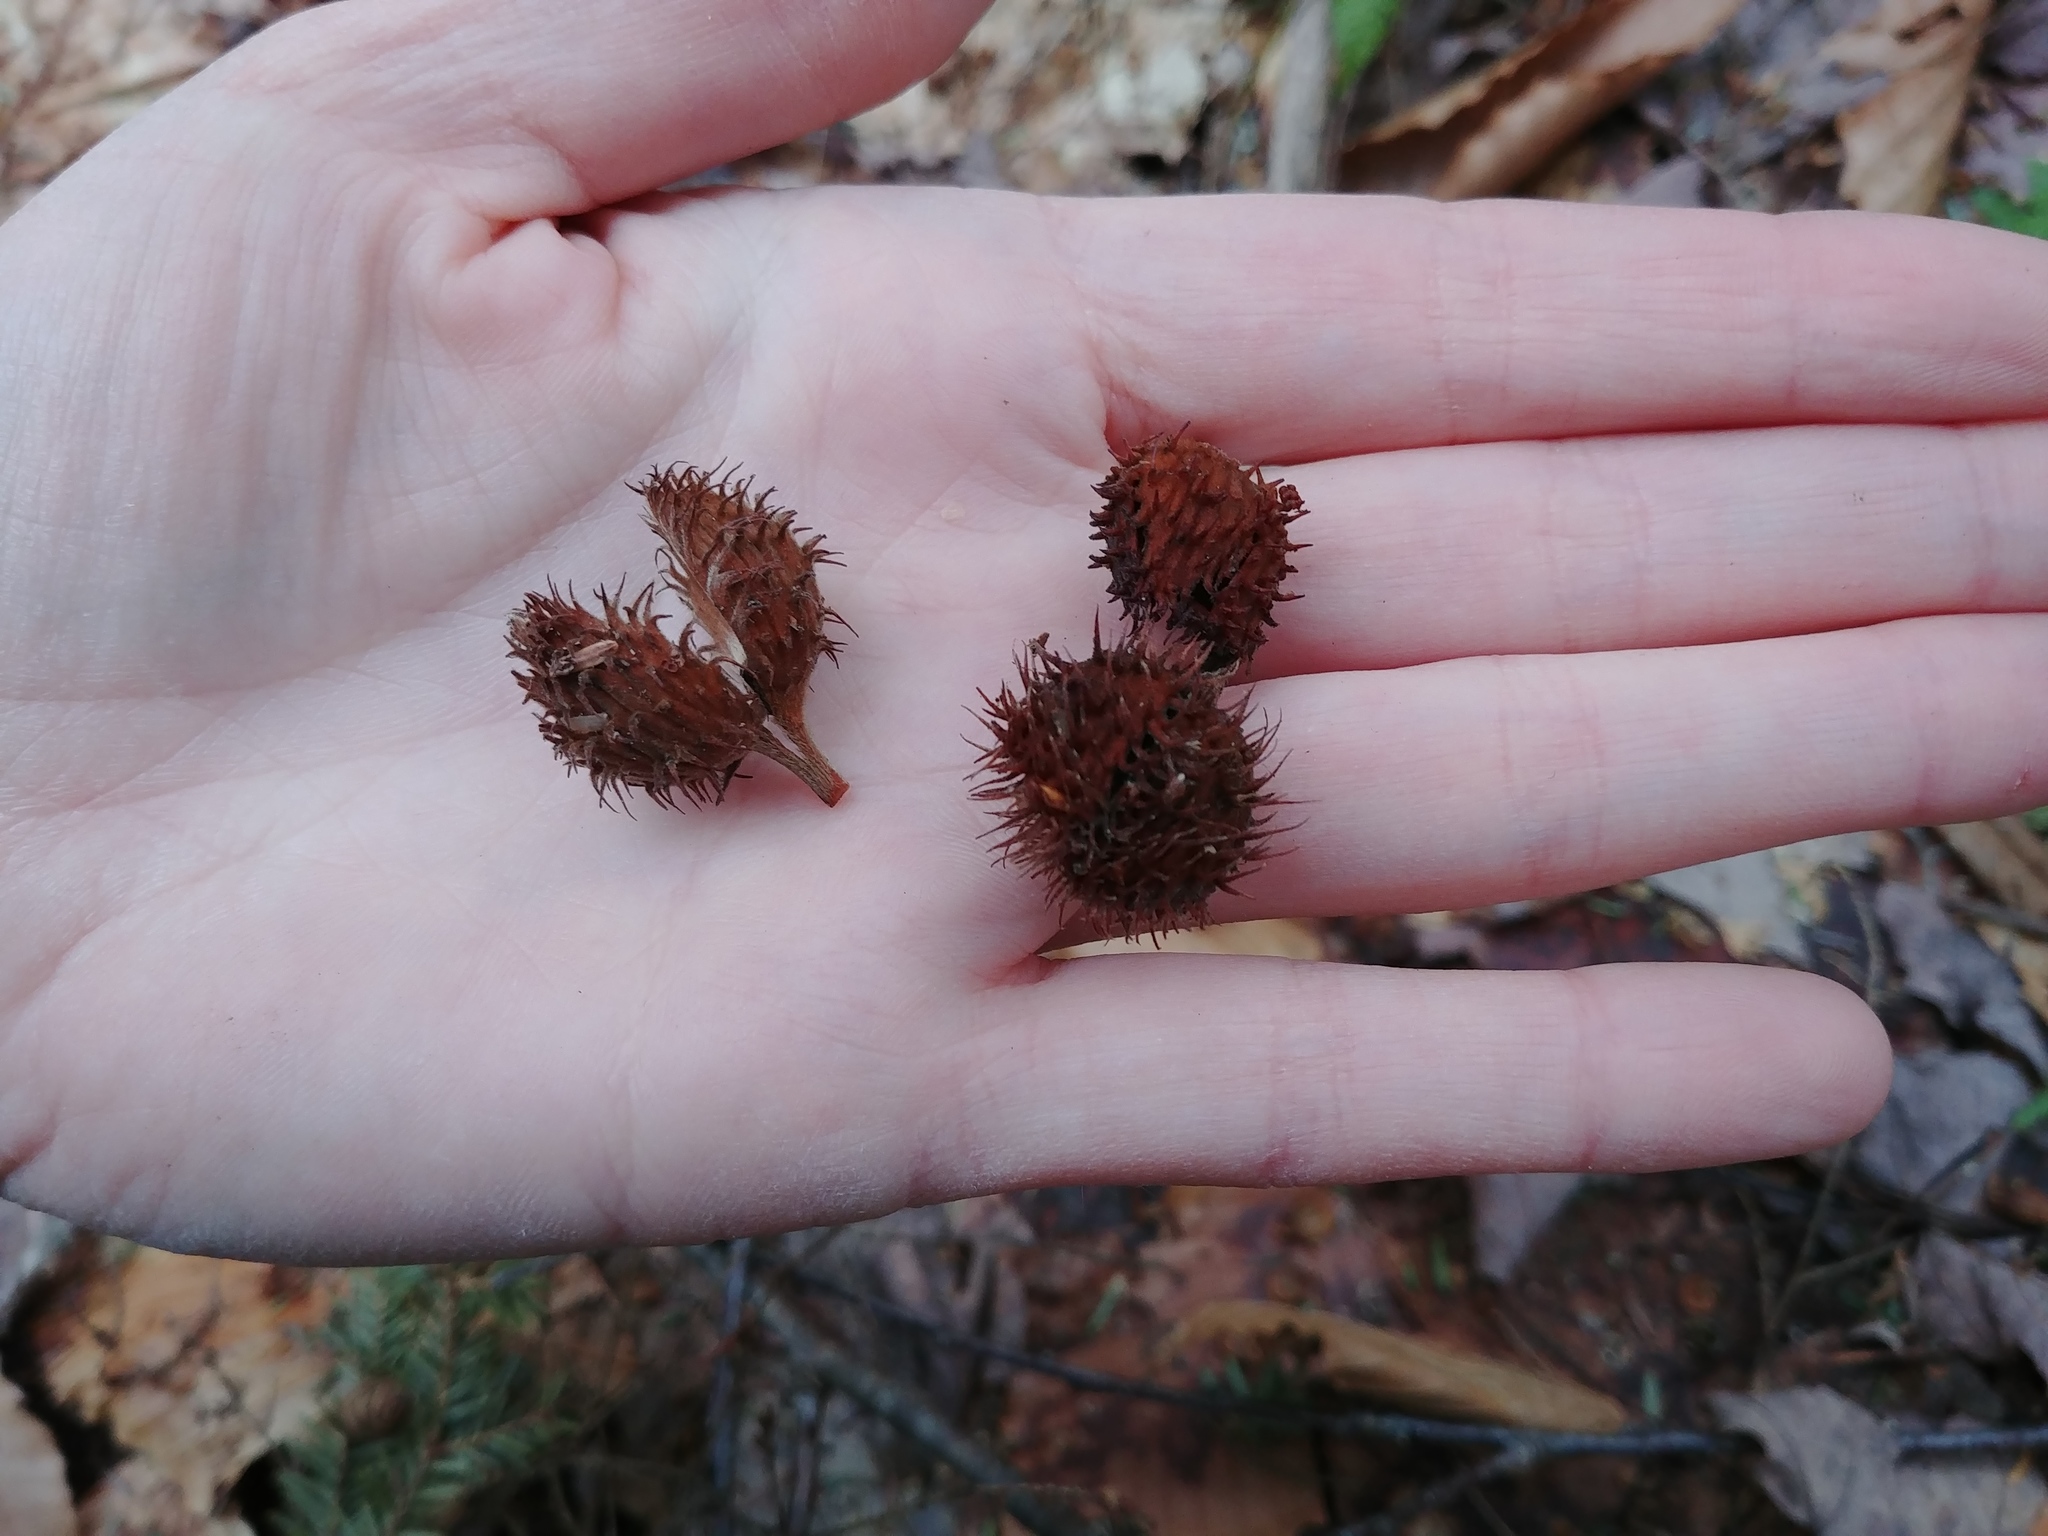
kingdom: Plantae
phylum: Tracheophyta
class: Magnoliopsida
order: Fagales
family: Fagaceae
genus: Fagus
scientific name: Fagus grandifolia
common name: American beech
